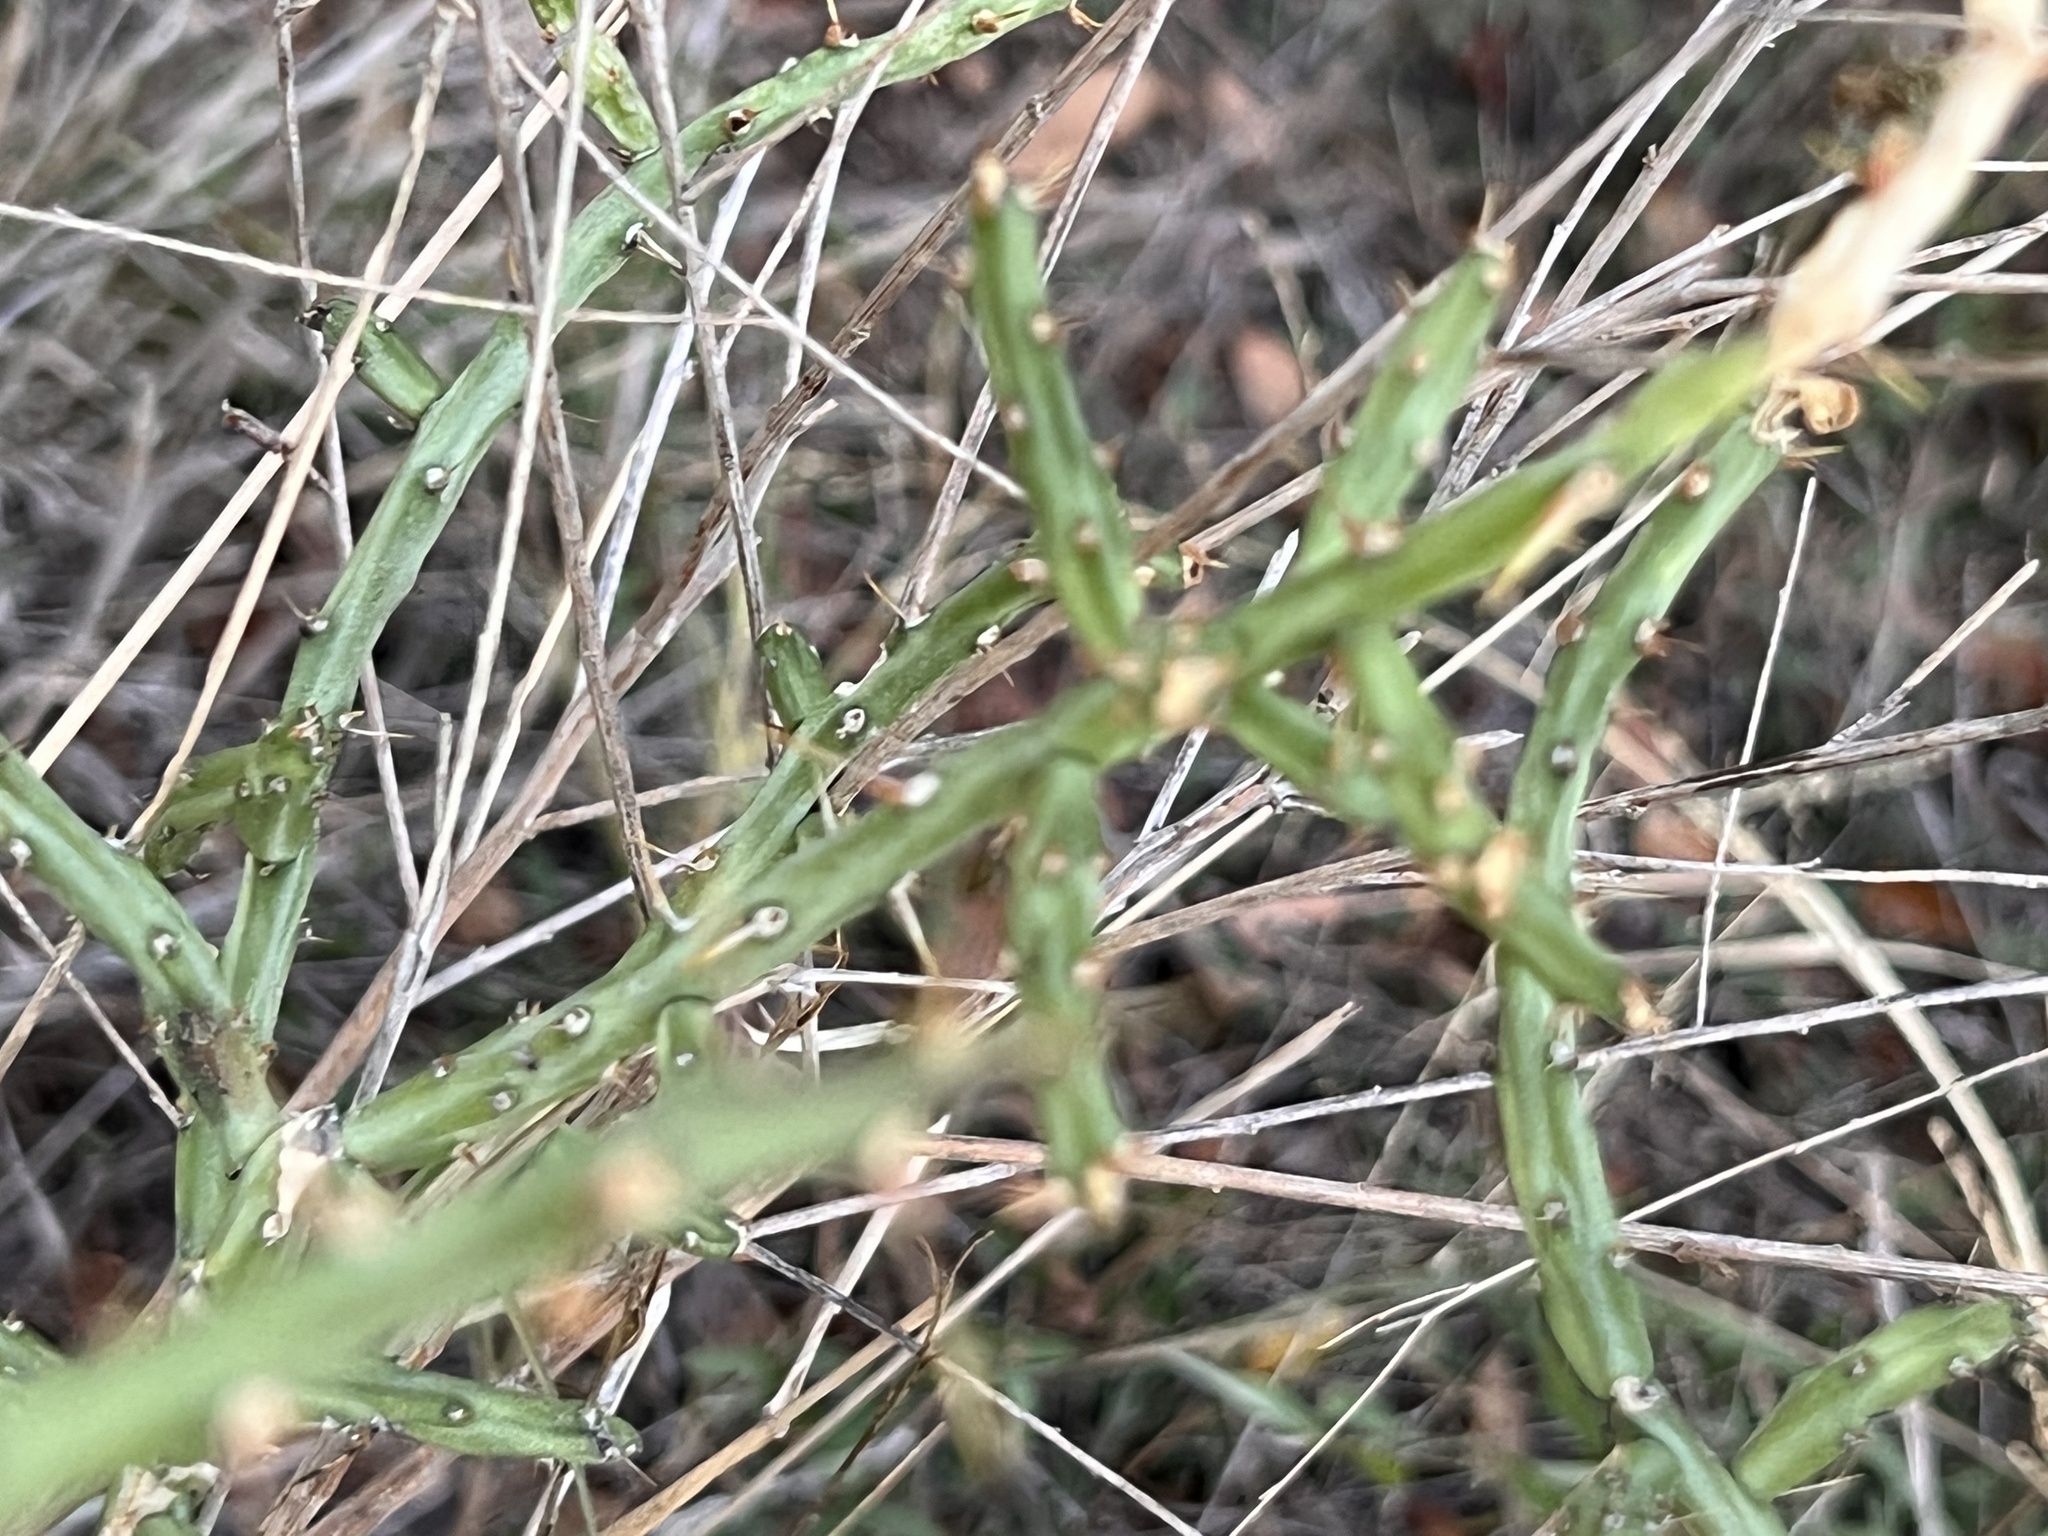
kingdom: Plantae
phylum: Tracheophyta
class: Magnoliopsida
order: Caryophyllales
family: Cactaceae
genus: Cylindropuntia
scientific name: Cylindropuntia leptocaulis
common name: Christmas cactus
